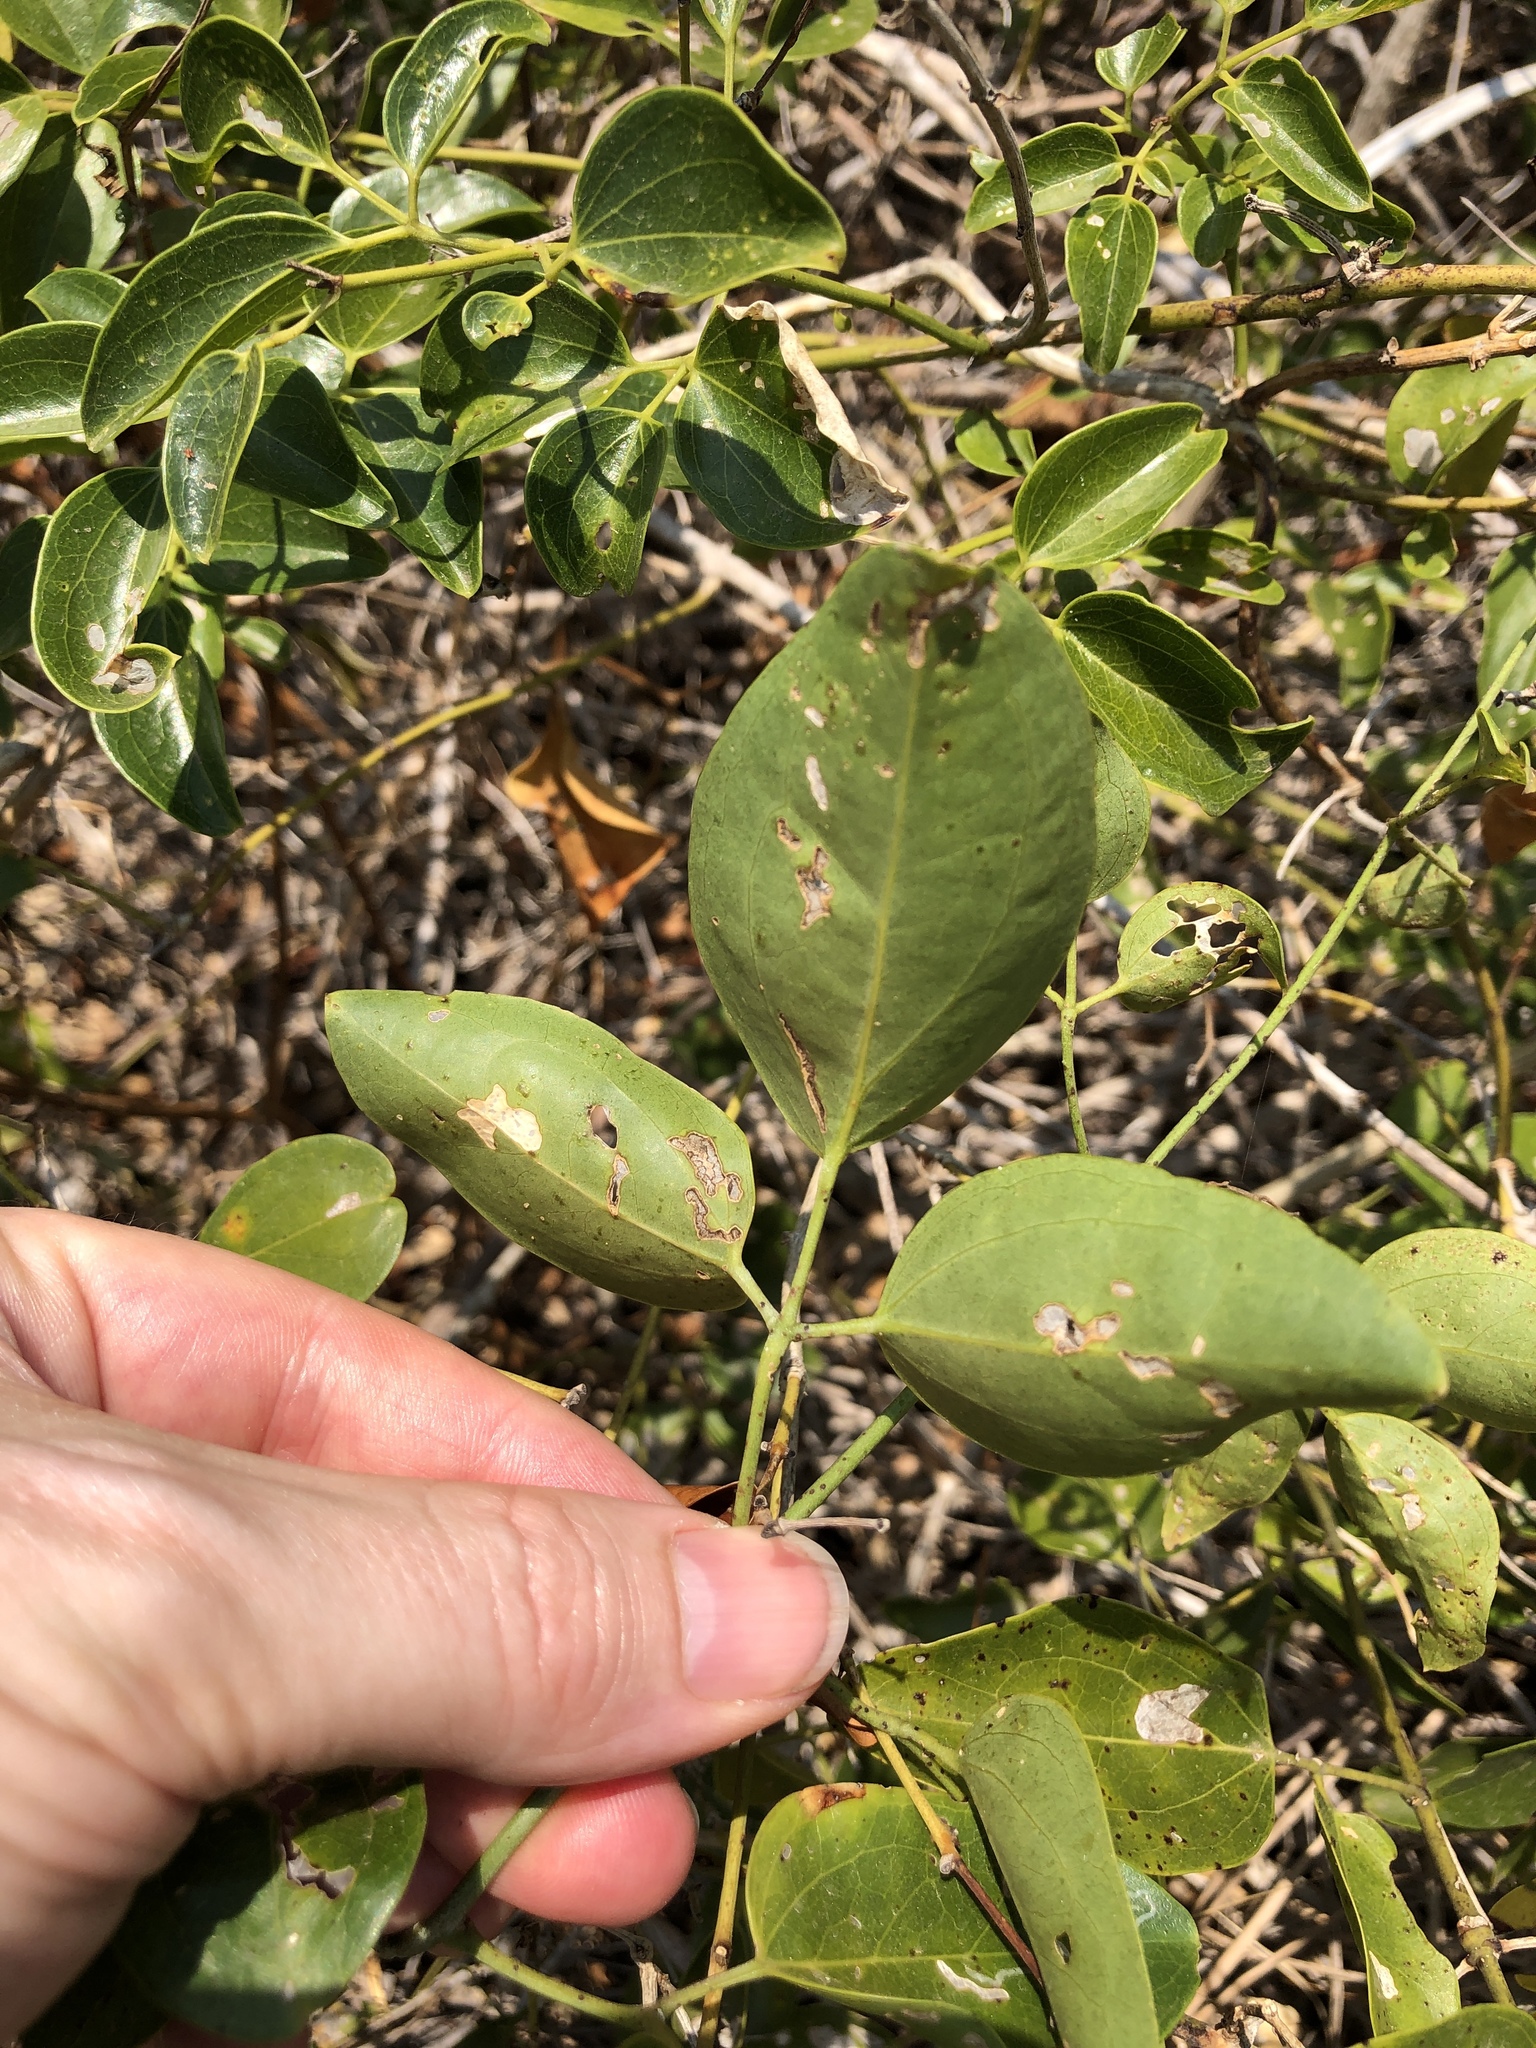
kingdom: Plantae
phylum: Tracheophyta
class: Magnoliopsida
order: Lamiales
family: Oleaceae
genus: Jasminum
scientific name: Jasminum didymum
